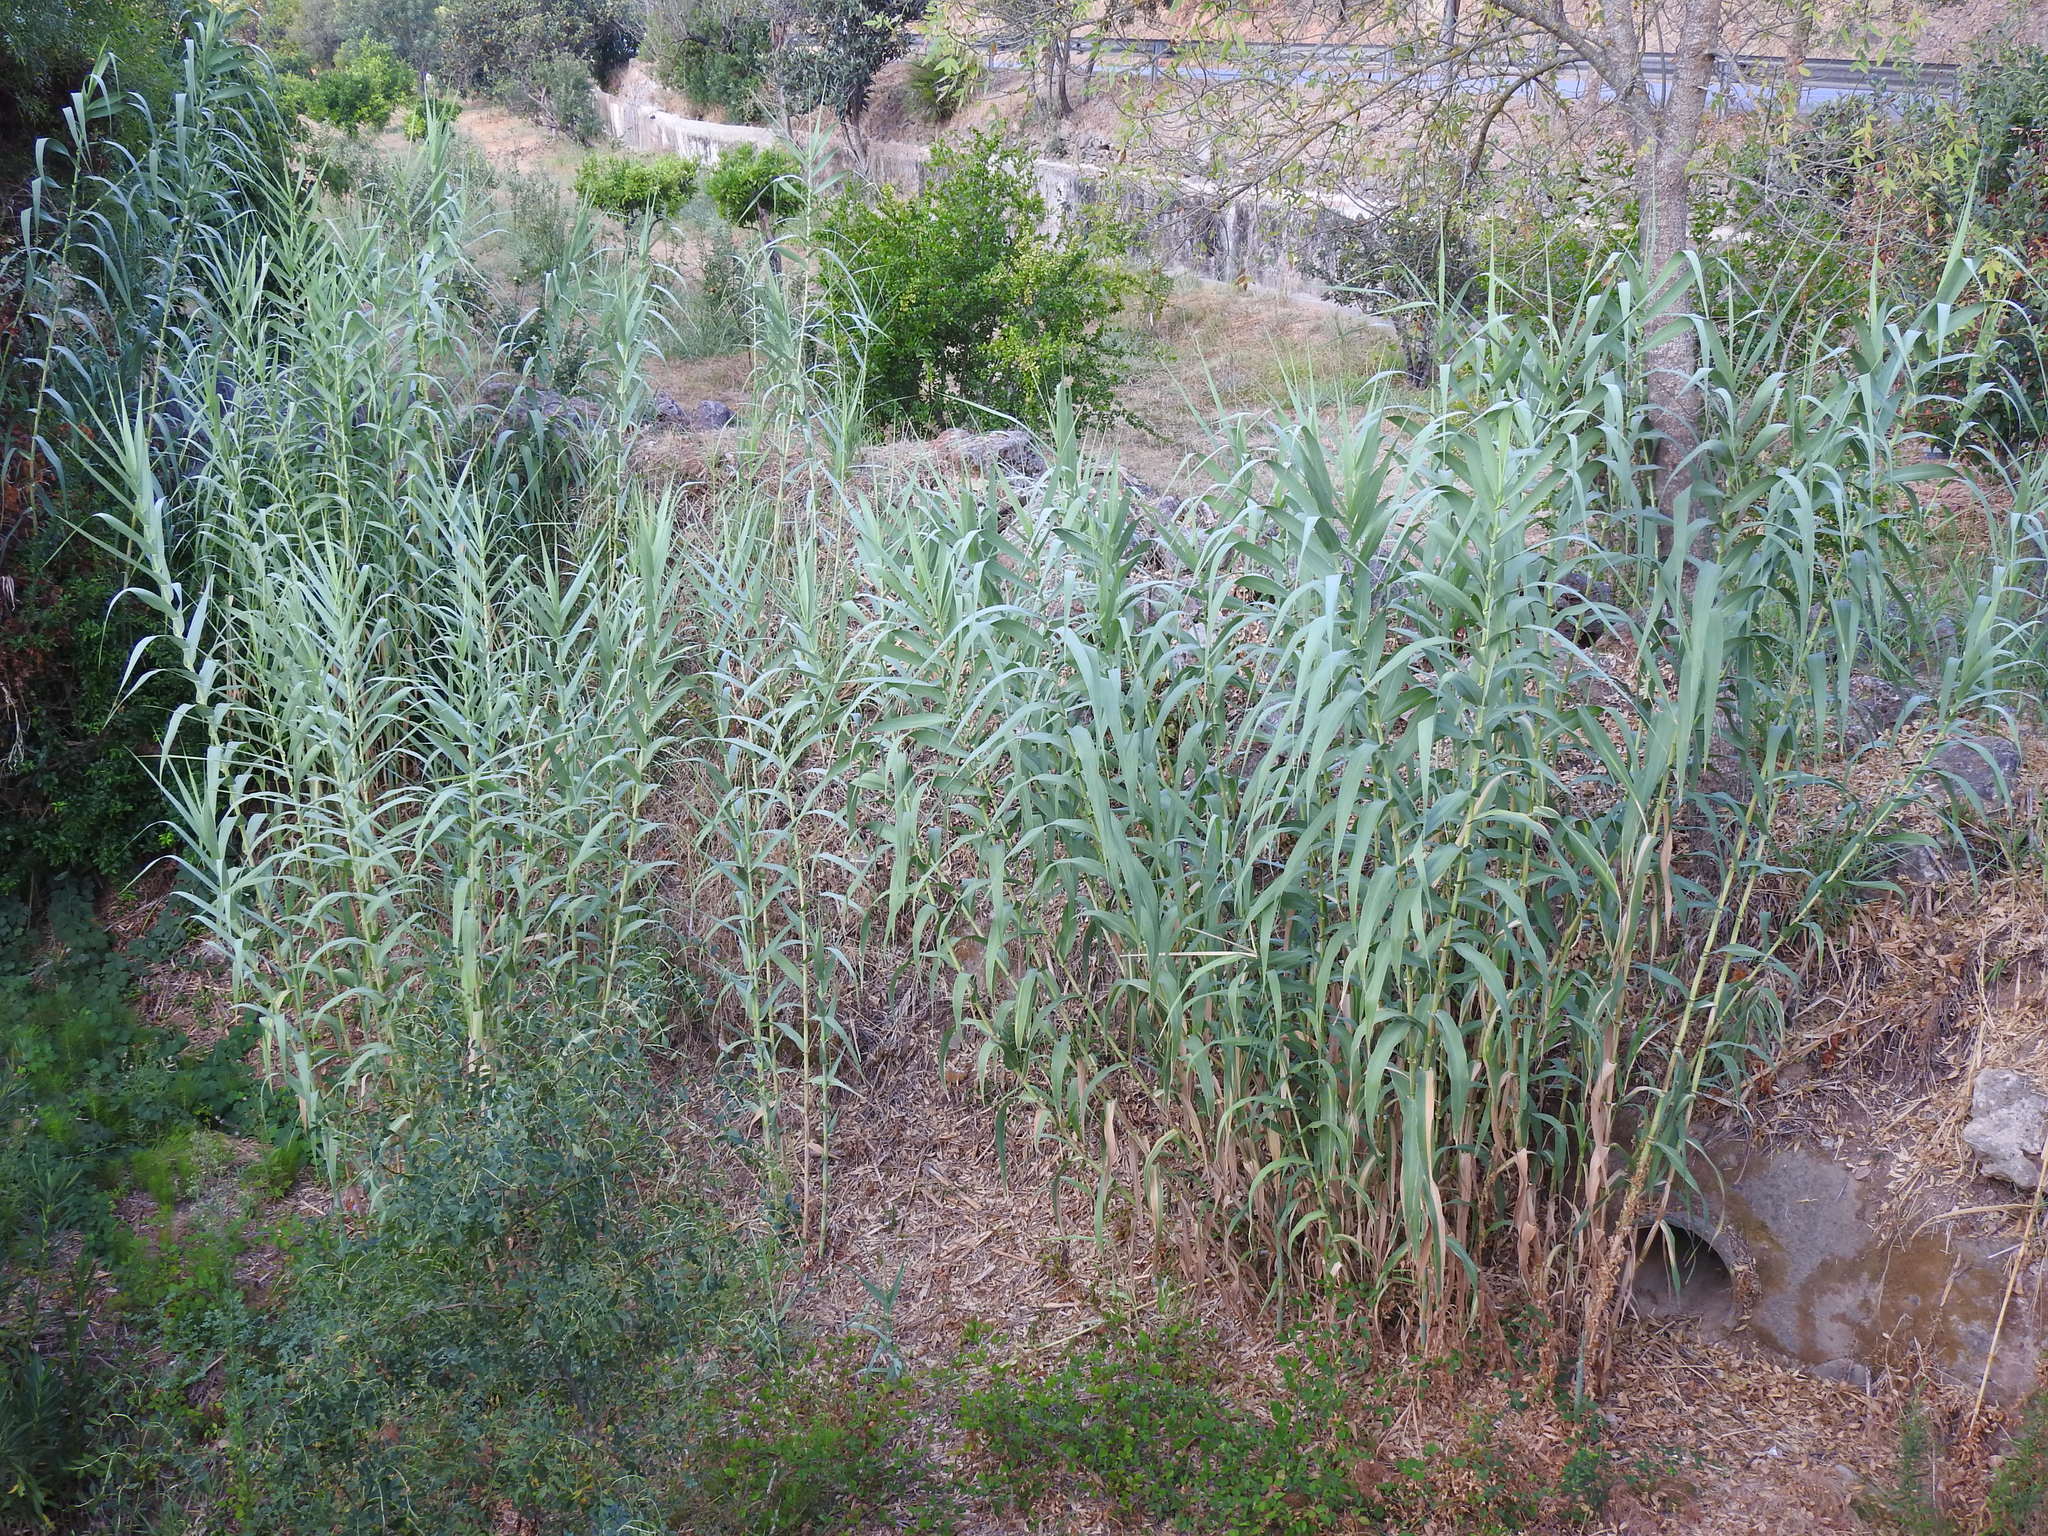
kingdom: Plantae
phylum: Tracheophyta
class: Liliopsida
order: Poales
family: Poaceae
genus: Arundo
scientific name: Arundo donax
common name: Giant reed
